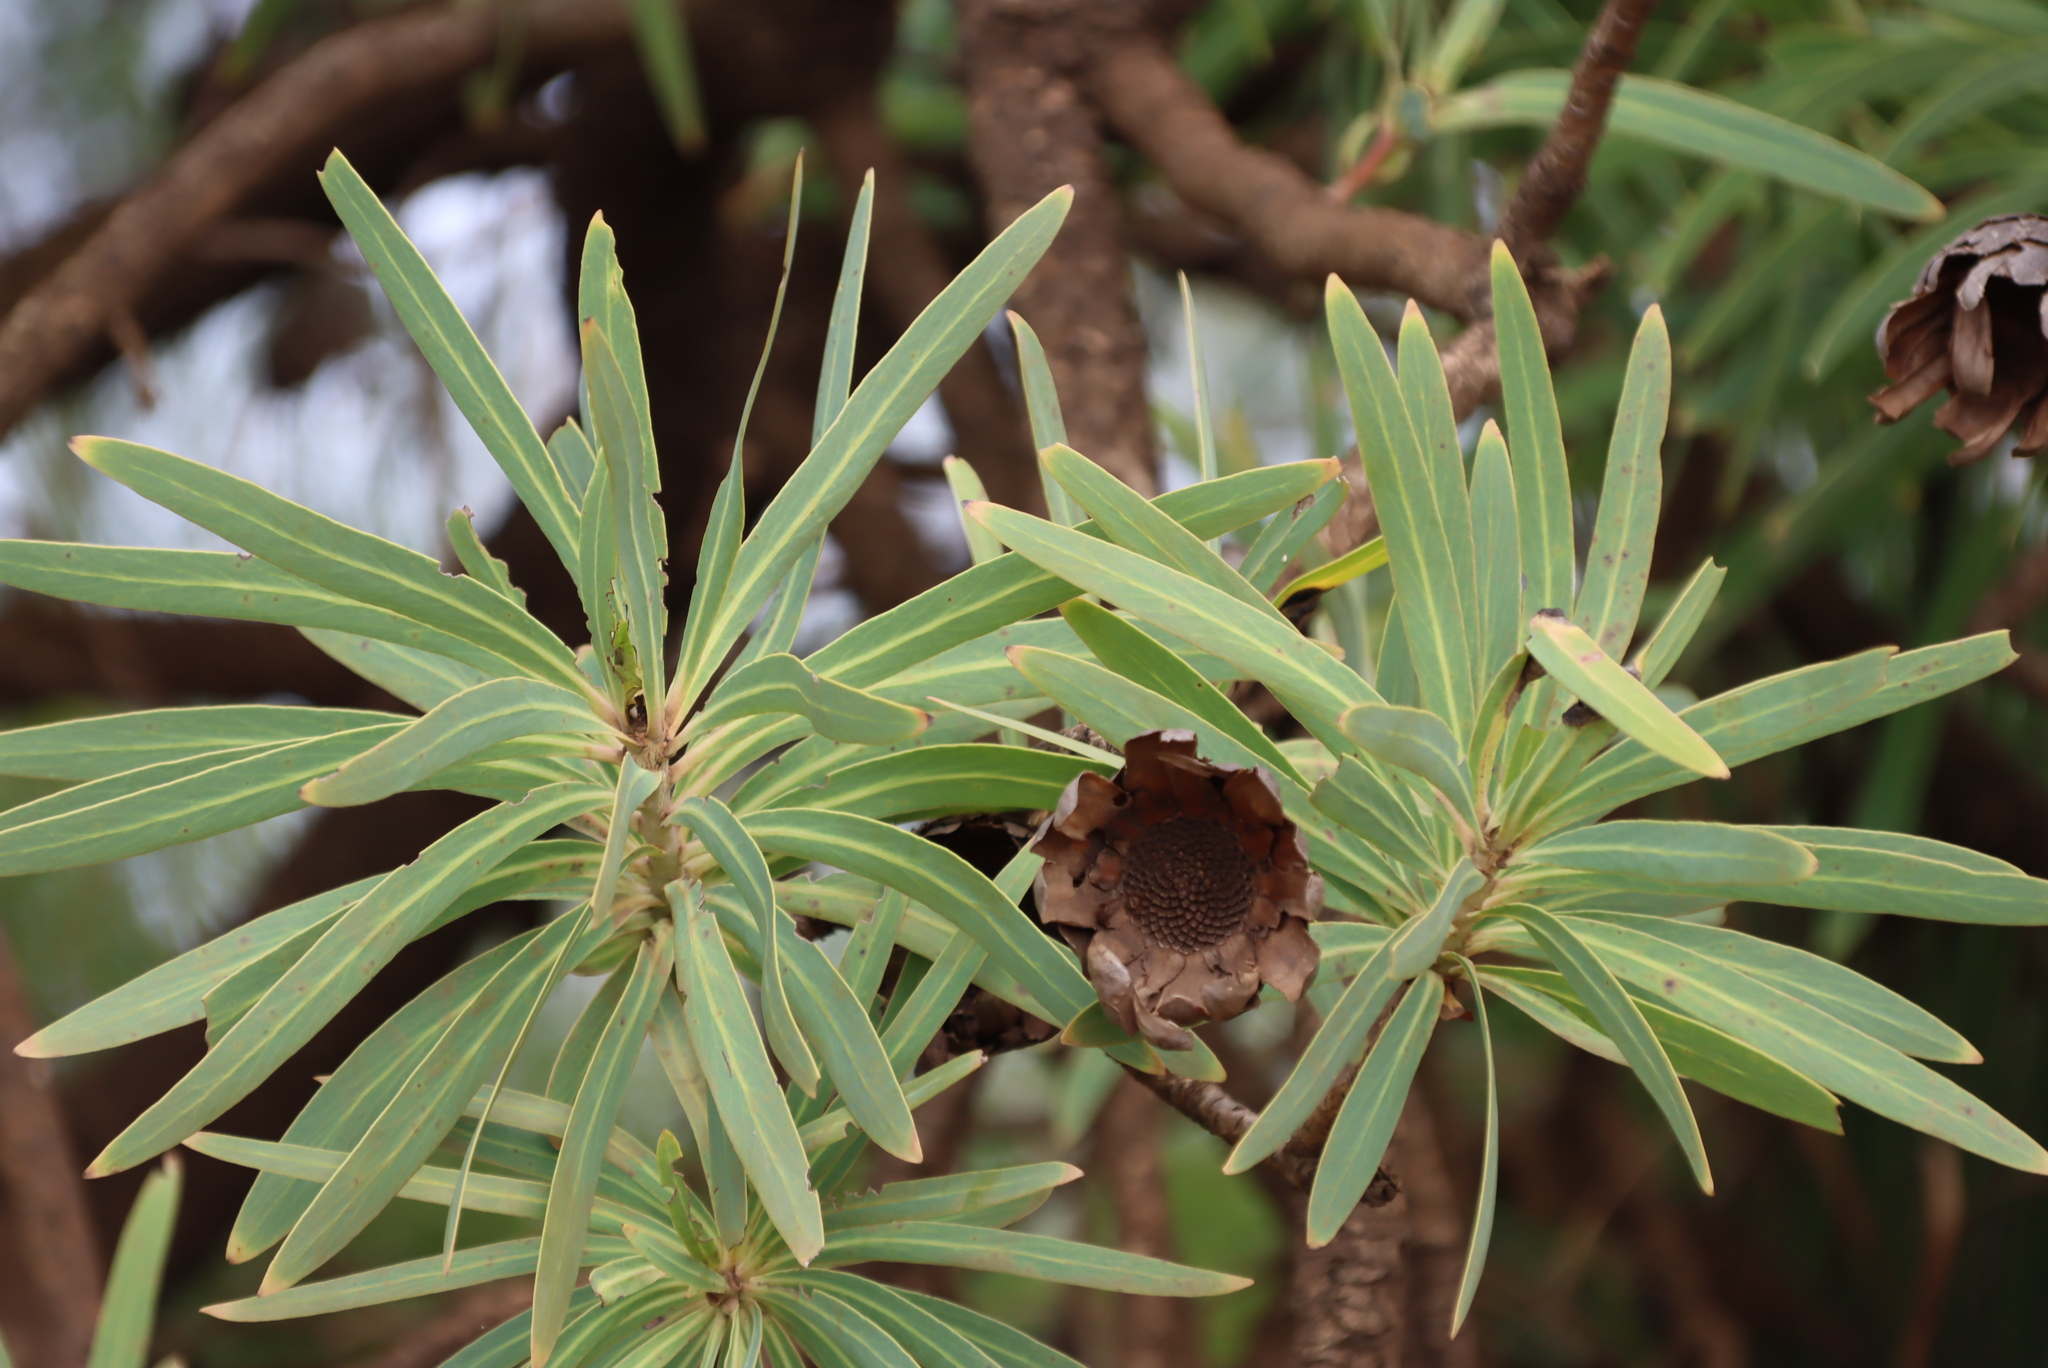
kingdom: Plantae
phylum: Tracheophyta
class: Magnoliopsida
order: Proteales
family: Proteaceae
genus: Protea
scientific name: Protea gaguedi
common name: African protea
